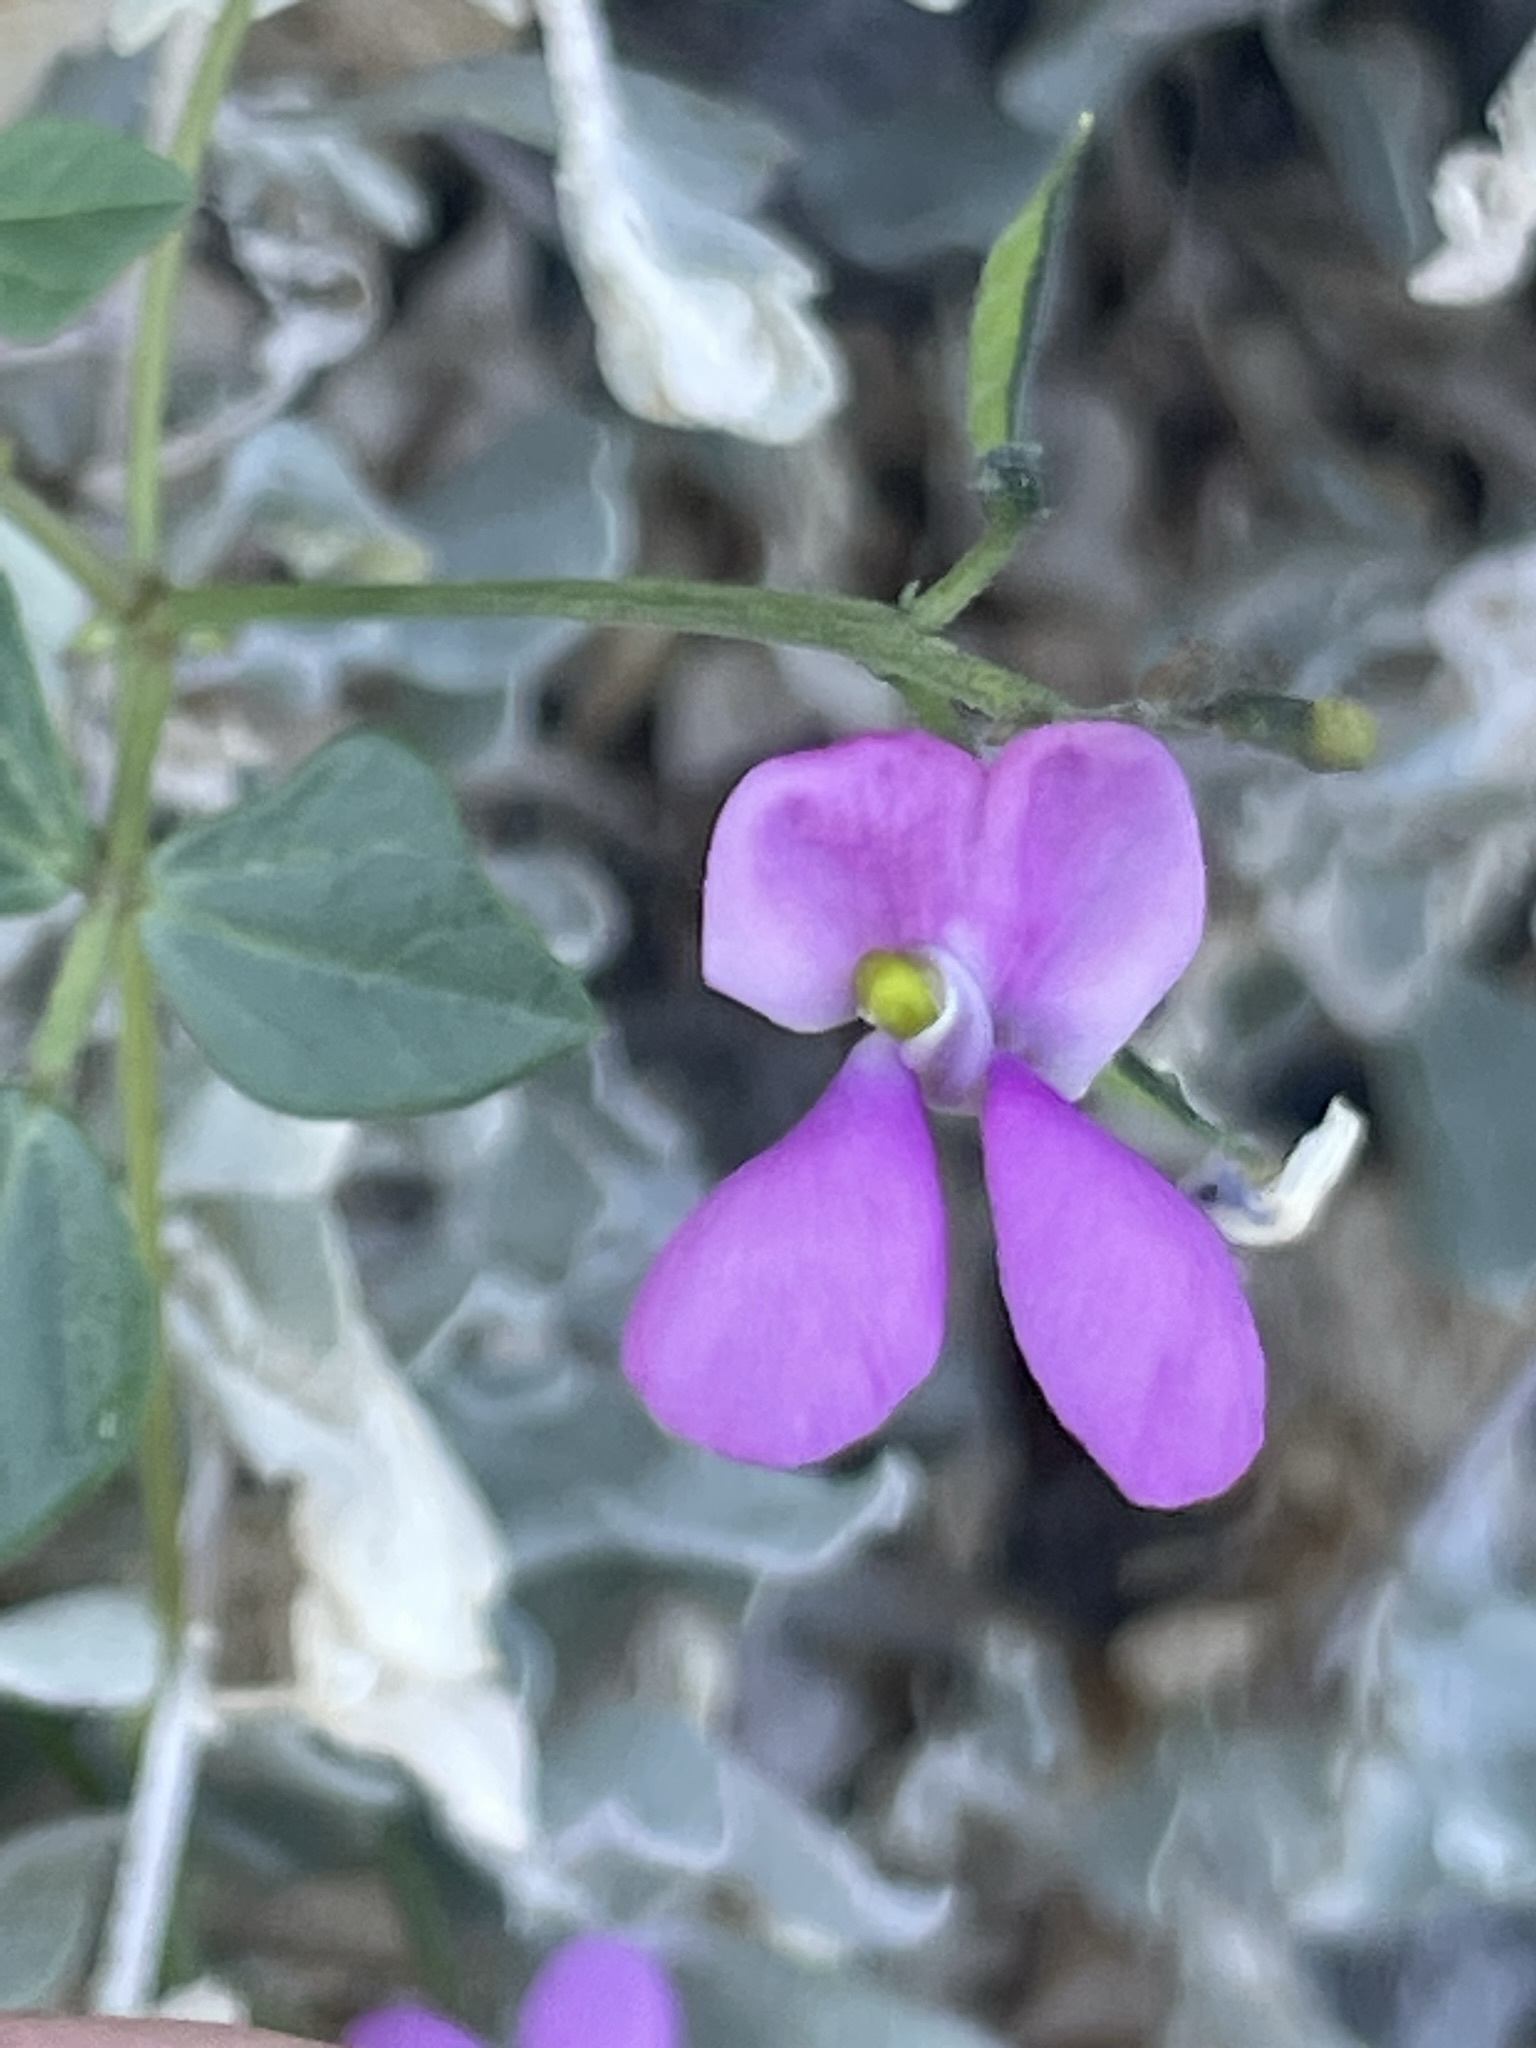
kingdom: Plantae
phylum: Tracheophyta
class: Magnoliopsida
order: Fabales
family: Fabaceae
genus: Phaseolus
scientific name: Phaseolus filiformis
